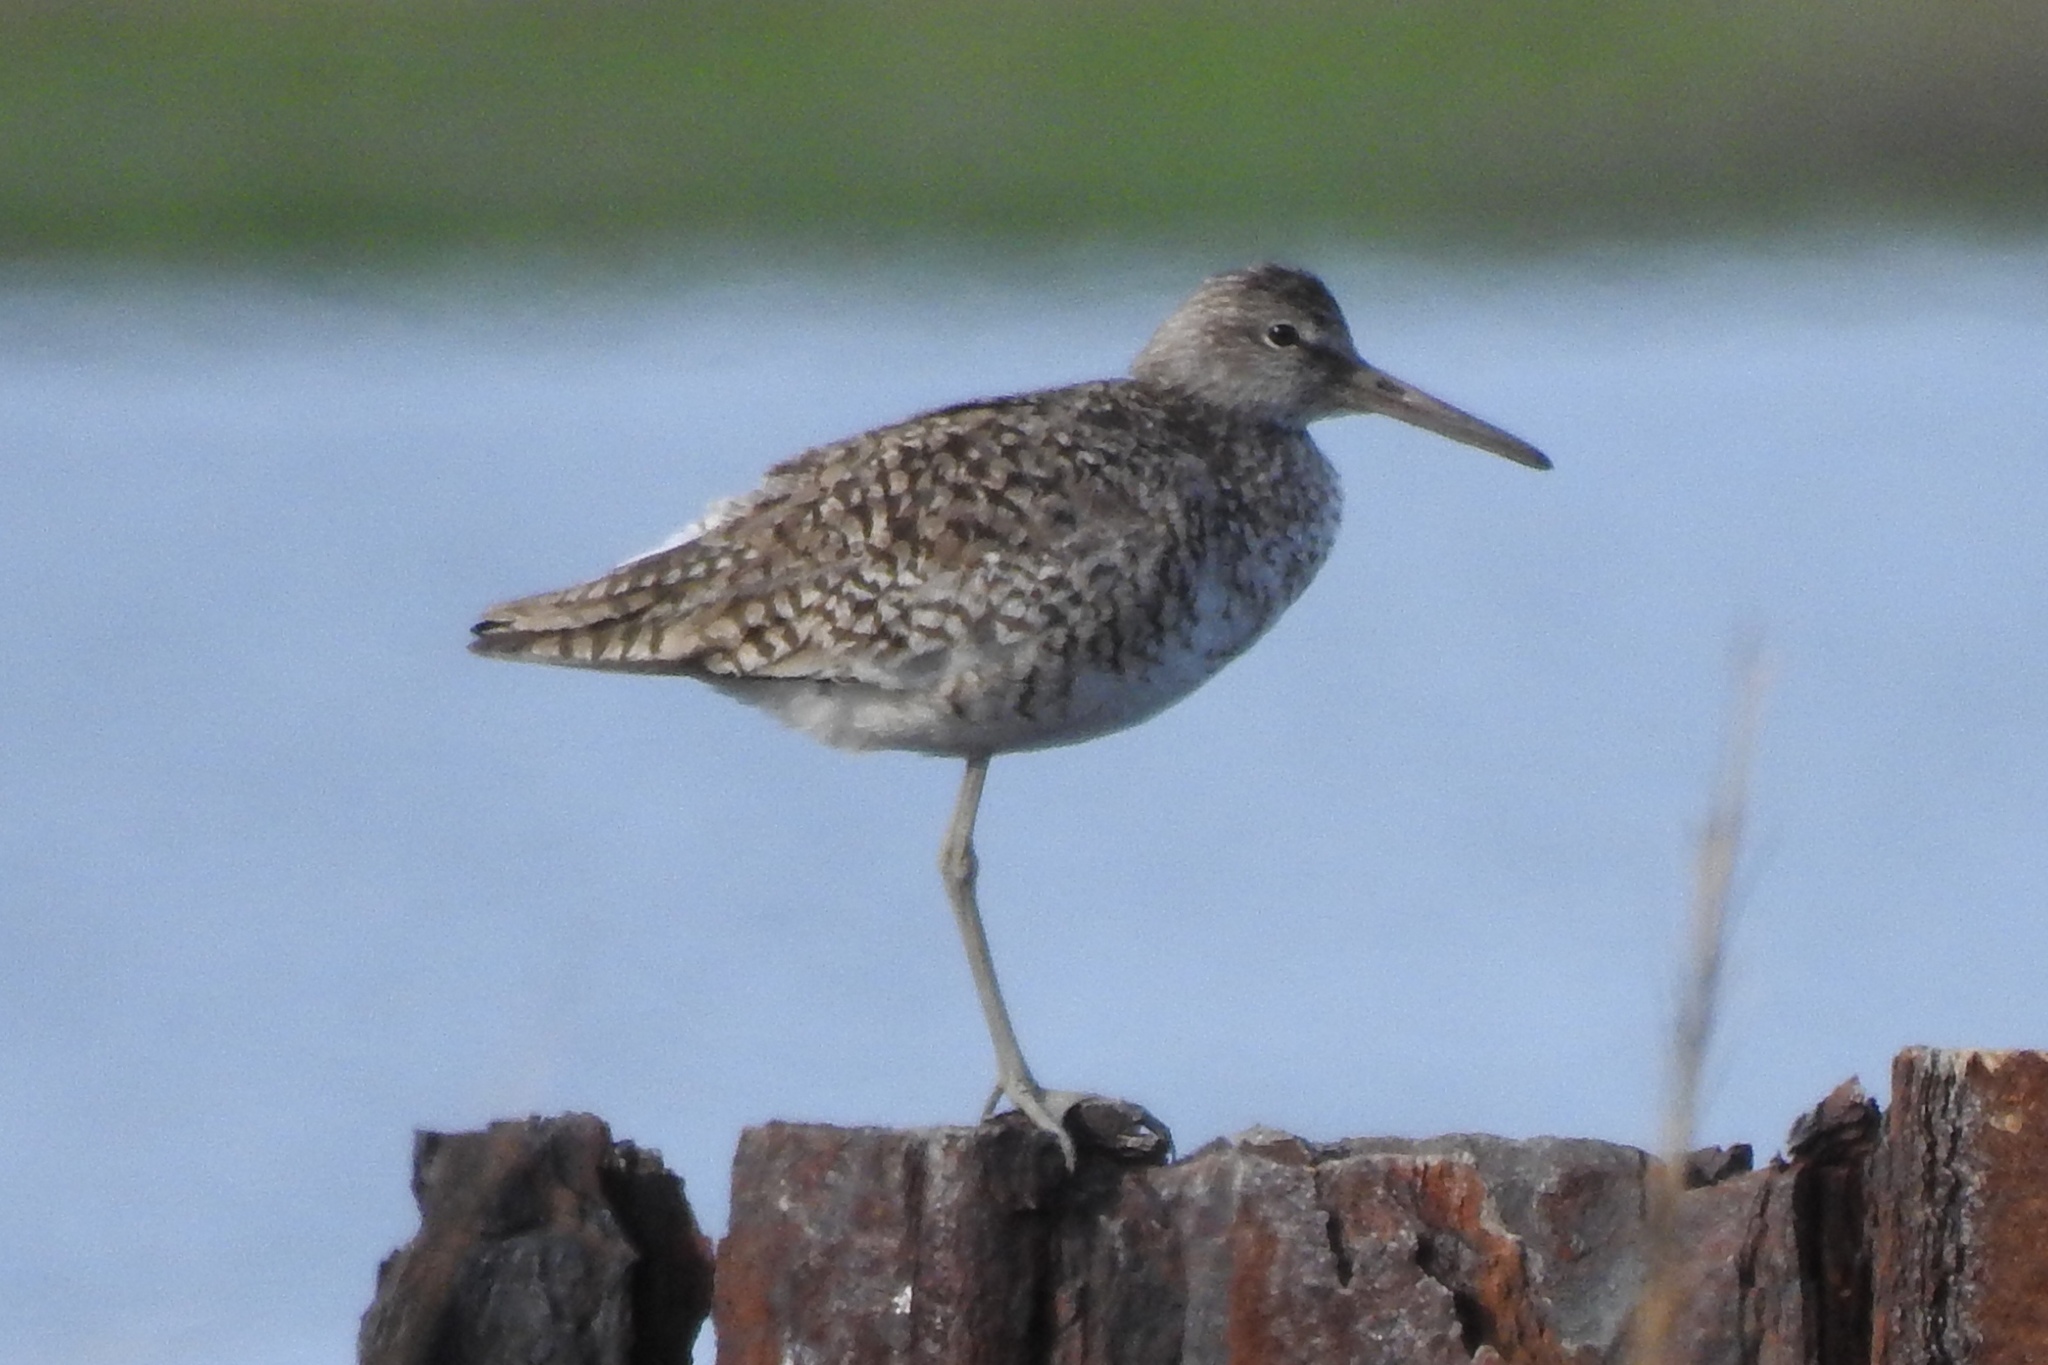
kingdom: Animalia
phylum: Chordata
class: Aves
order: Charadriiformes
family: Scolopacidae
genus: Tringa
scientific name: Tringa semipalmata
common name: Willet
